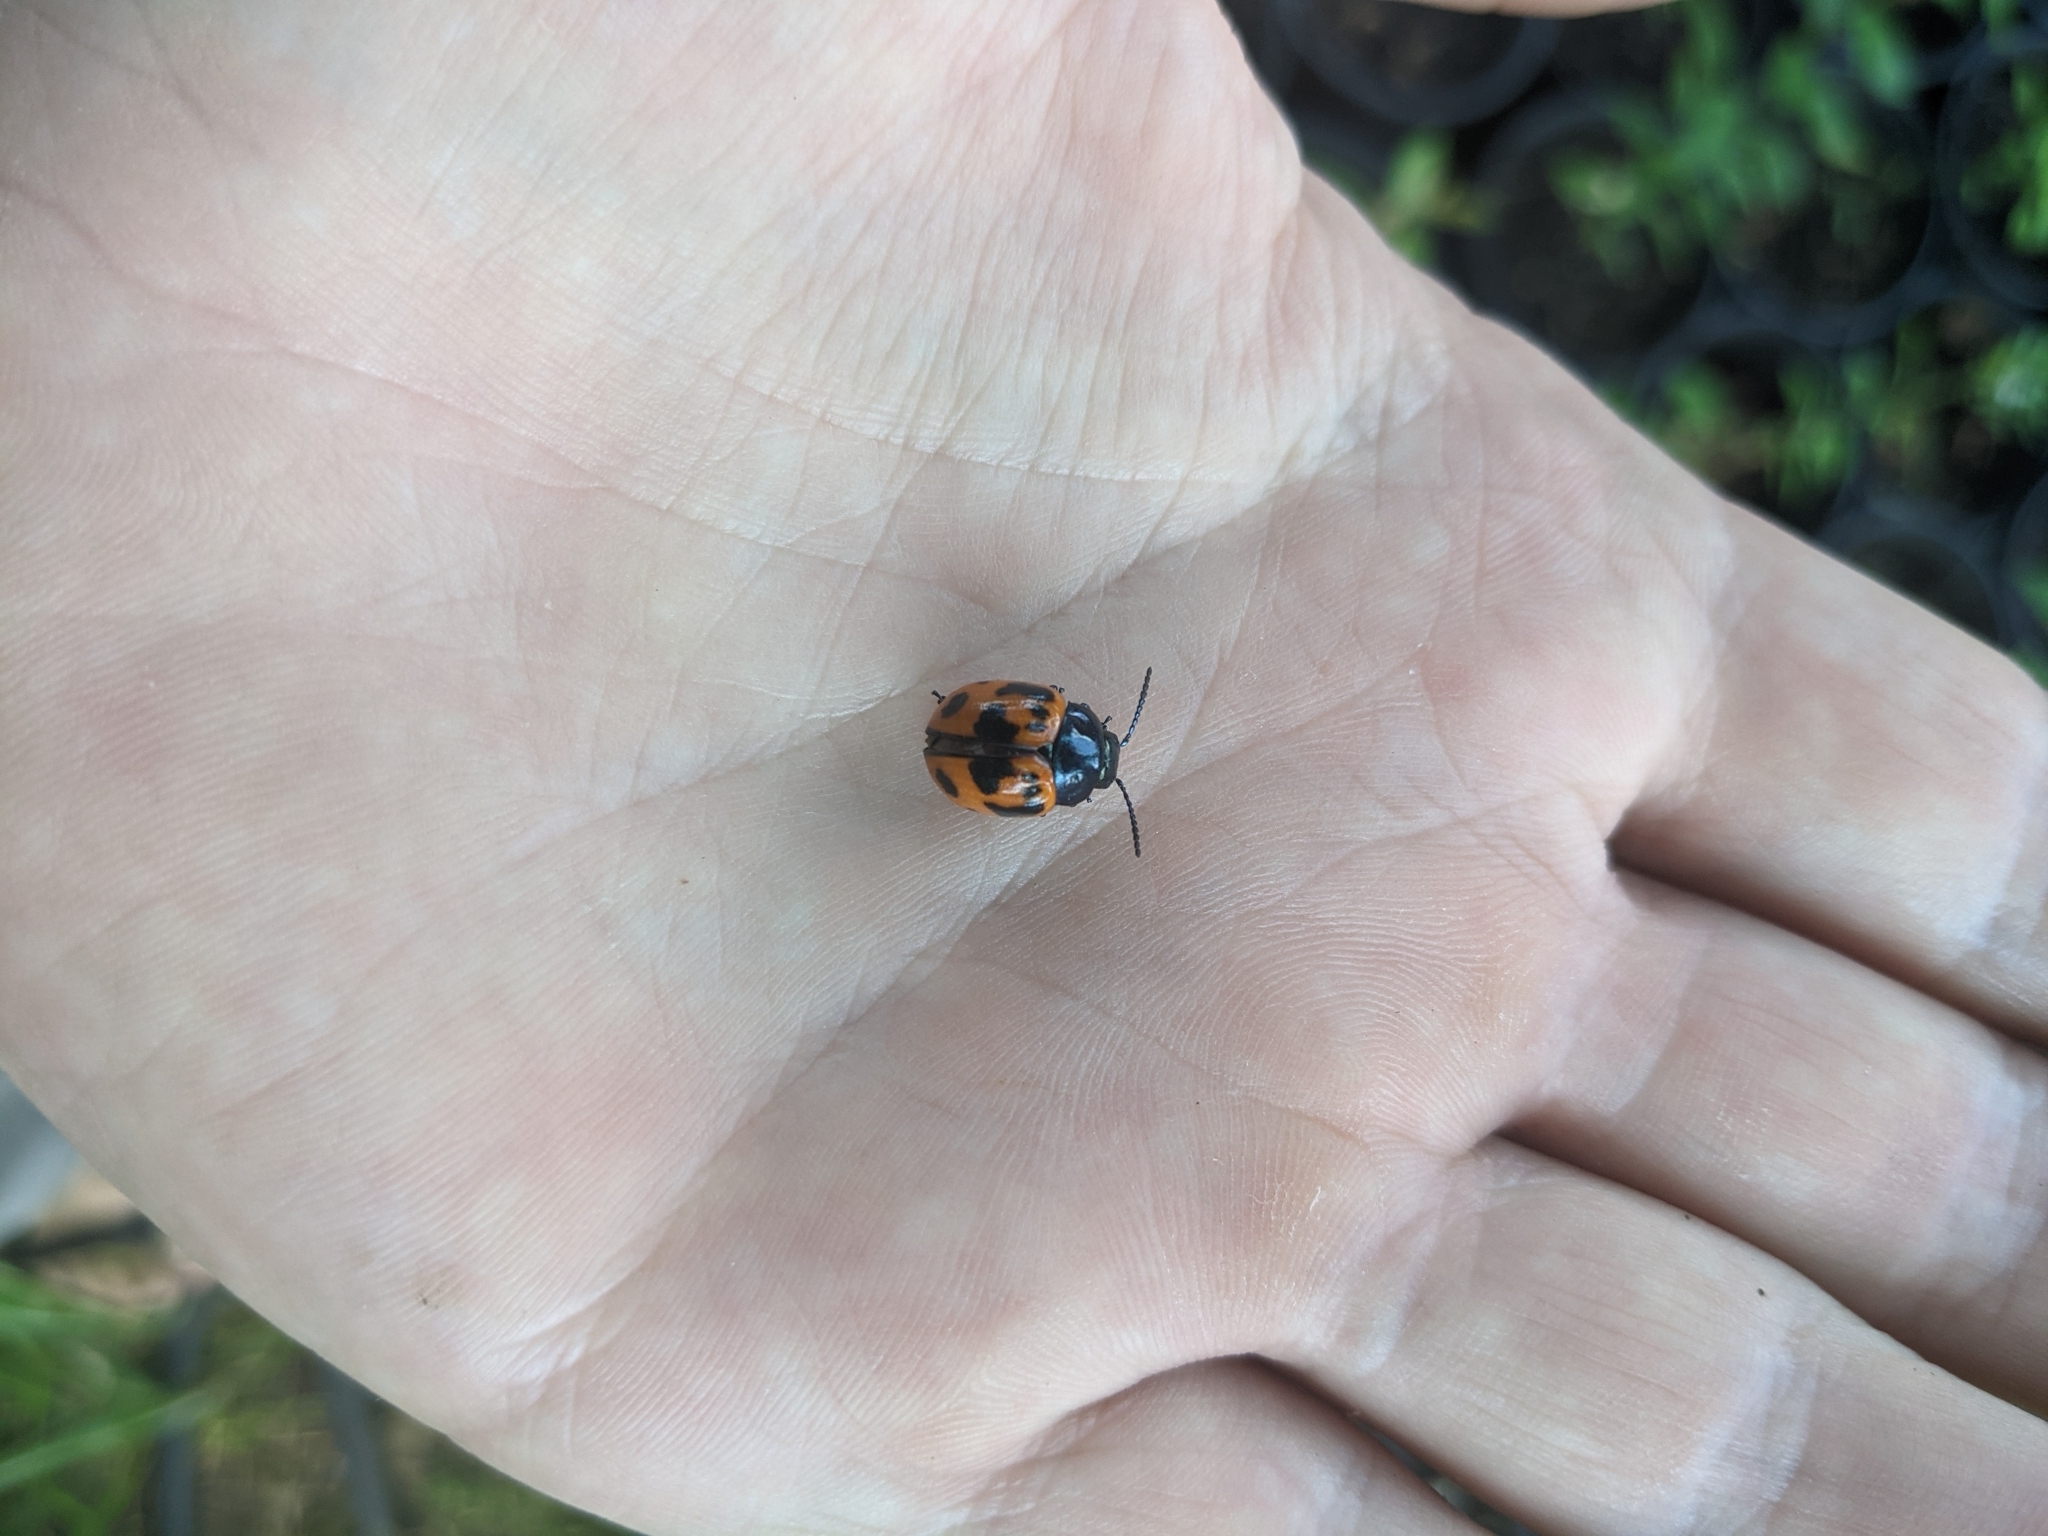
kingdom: Animalia
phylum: Arthropoda
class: Insecta
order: Coleoptera
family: Chrysomelidae
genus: Labidomera
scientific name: Labidomera clivicollis
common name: Swamp milkweed leaf beetle
